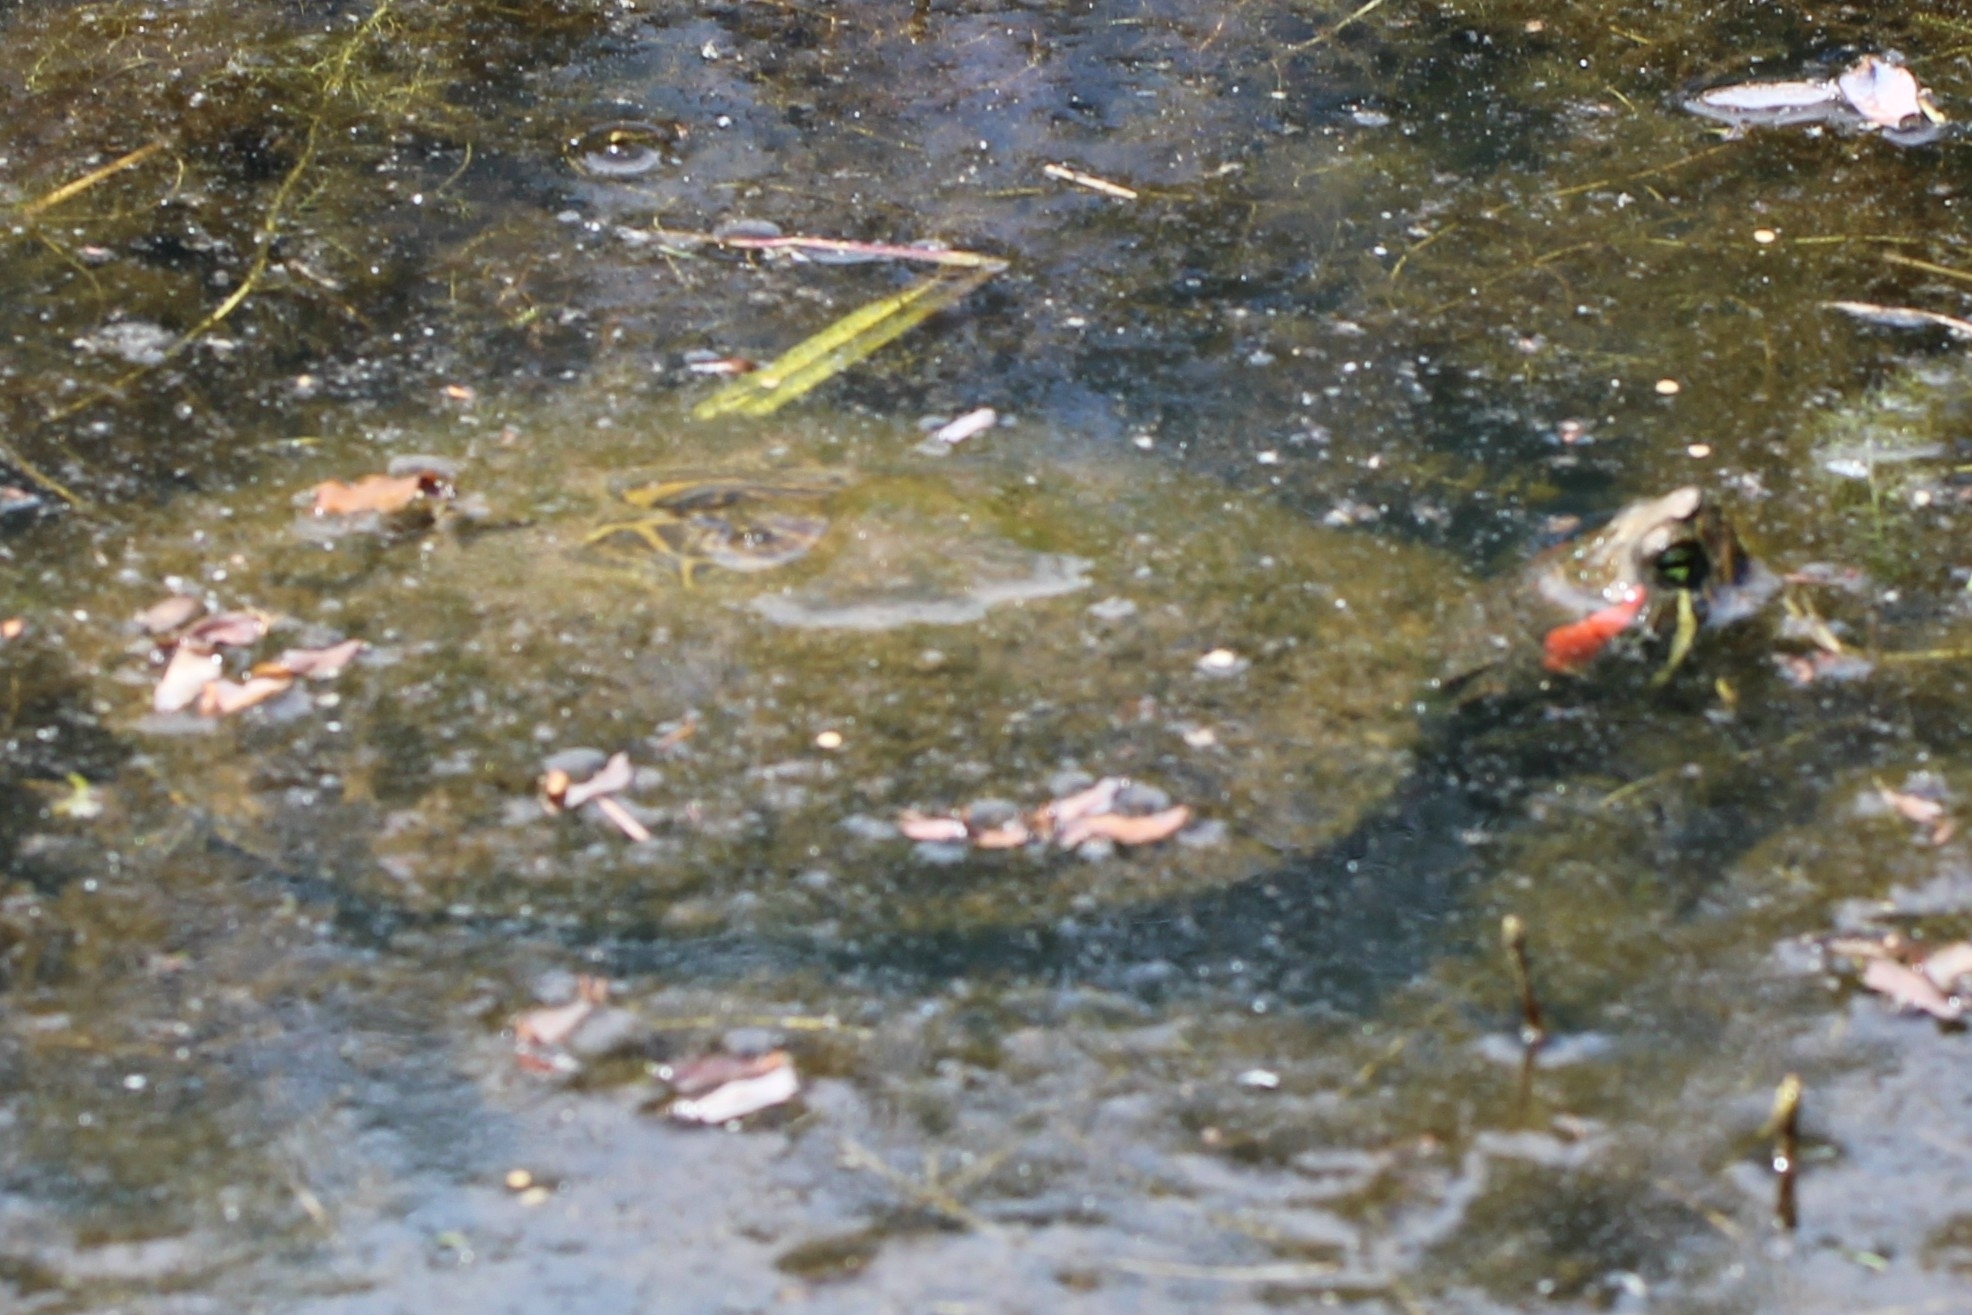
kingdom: Animalia
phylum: Chordata
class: Testudines
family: Emydidae
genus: Trachemys
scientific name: Trachemys scripta
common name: Slider
